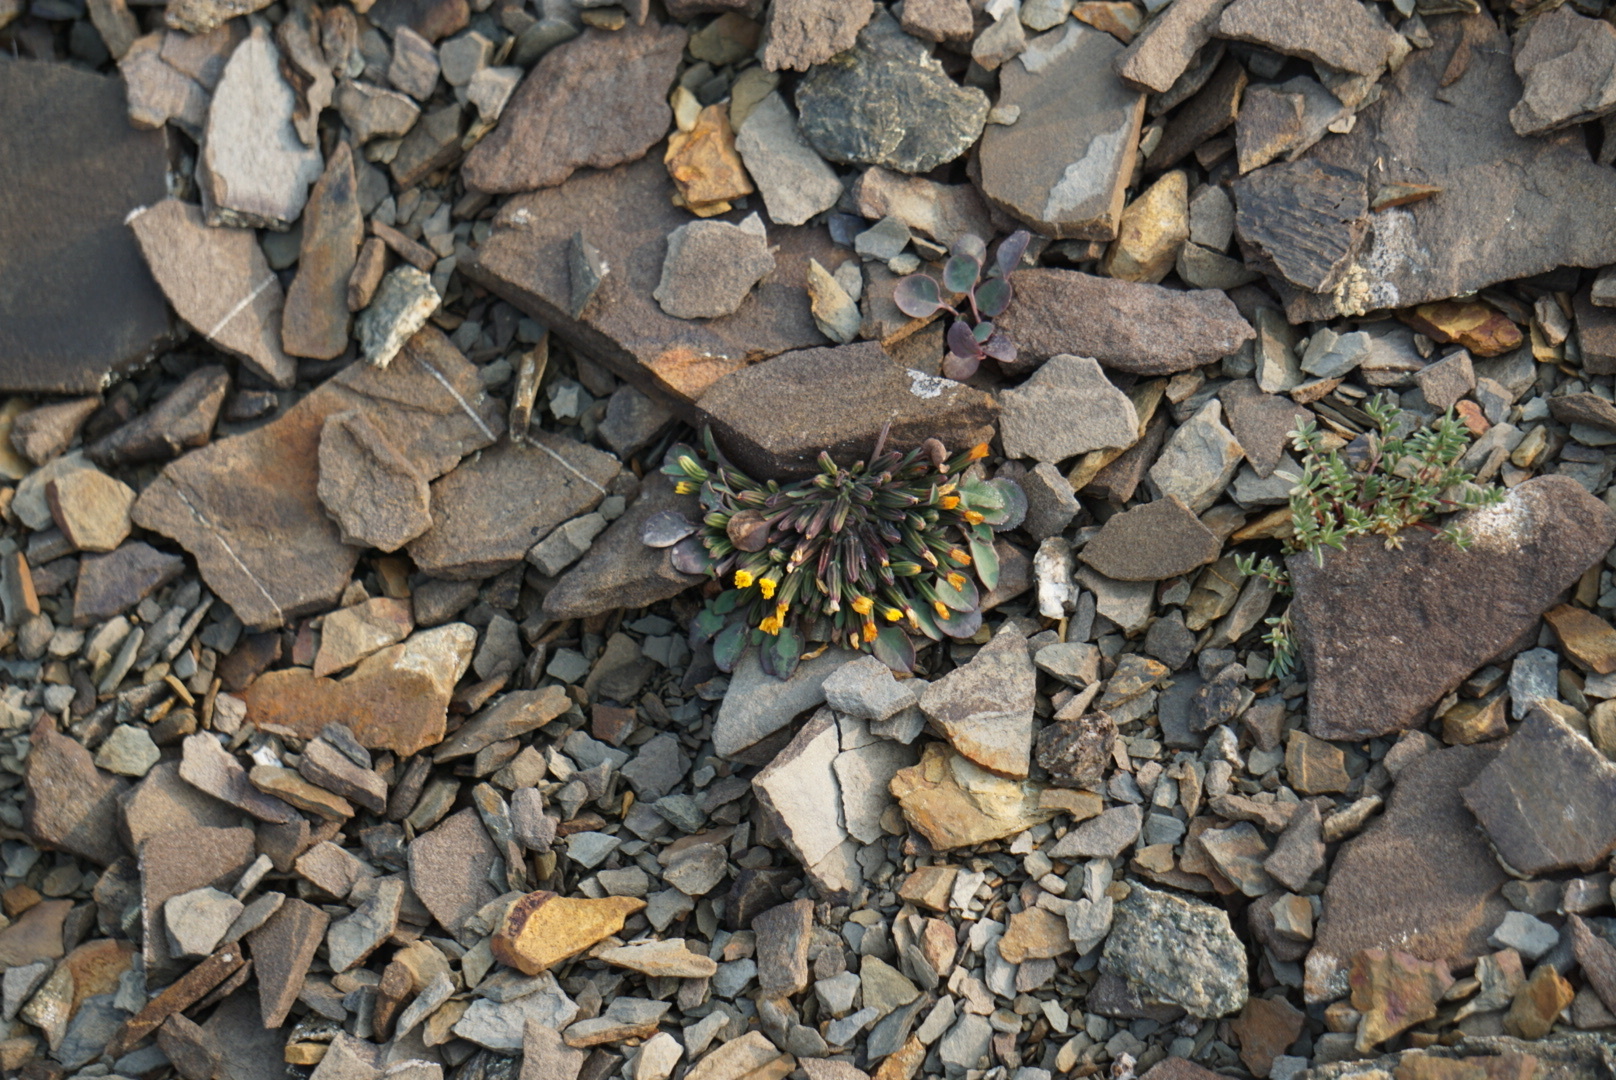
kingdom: Plantae
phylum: Tracheophyta
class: Magnoliopsida
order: Asterales
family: Asteraceae
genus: Askellia
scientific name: Askellia pygmaea
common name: Dwarf alpine hawksbeard
